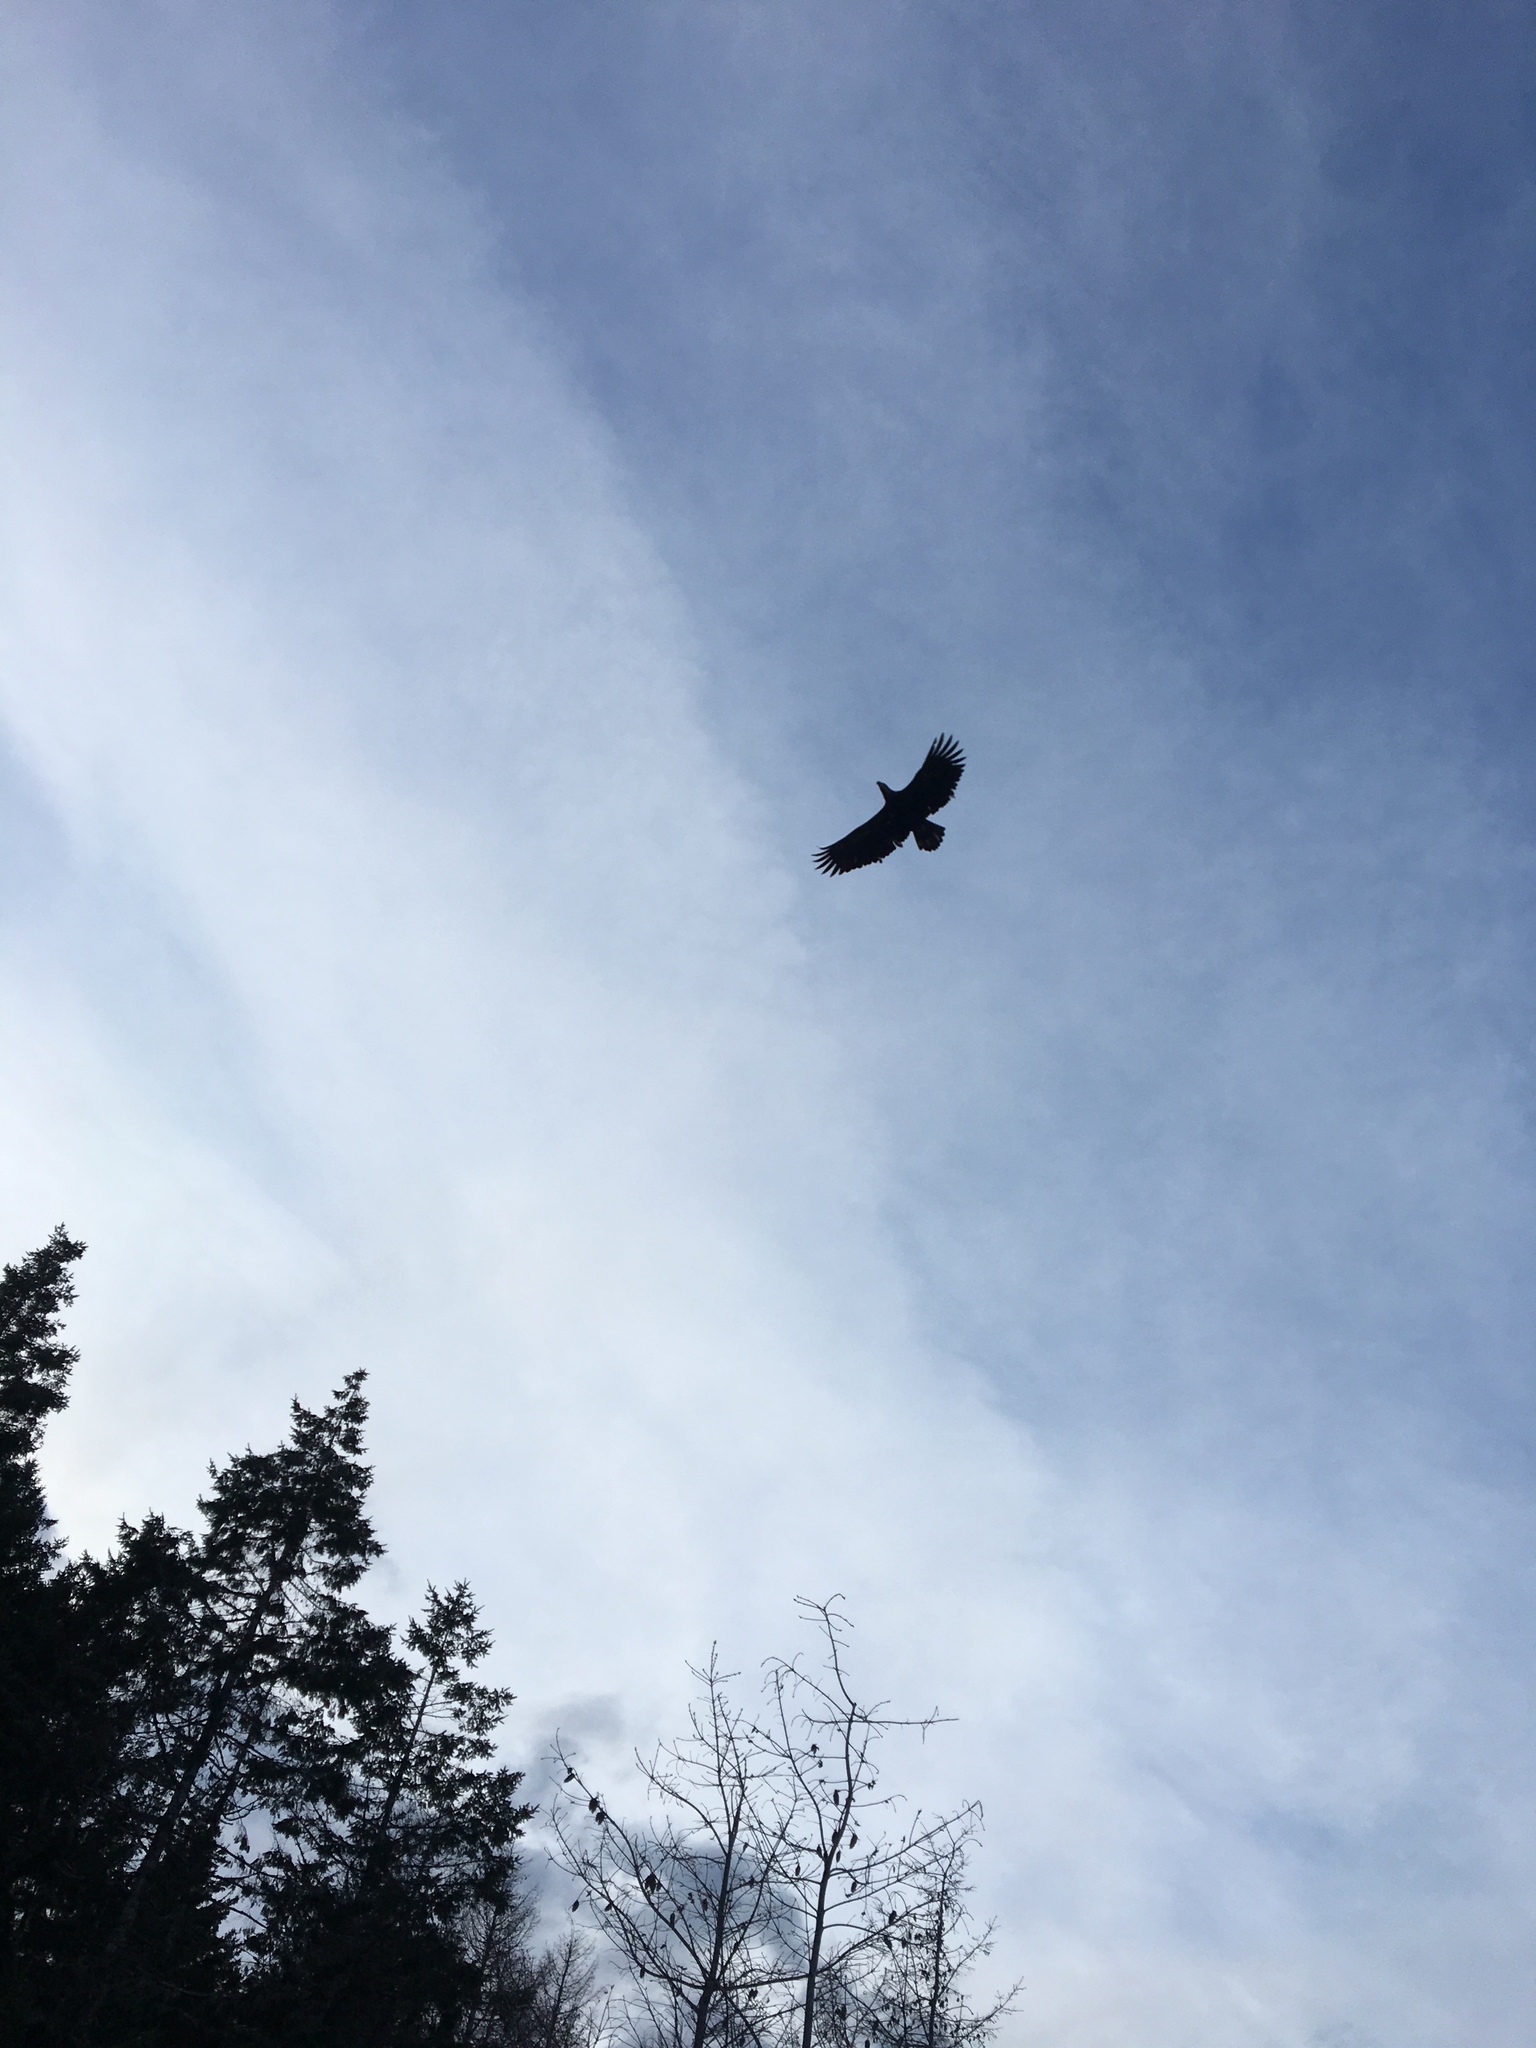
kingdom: Animalia
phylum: Chordata
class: Aves
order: Accipitriformes
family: Accipitridae
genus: Haliaeetus
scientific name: Haliaeetus leucocephalus
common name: Bald eagle
